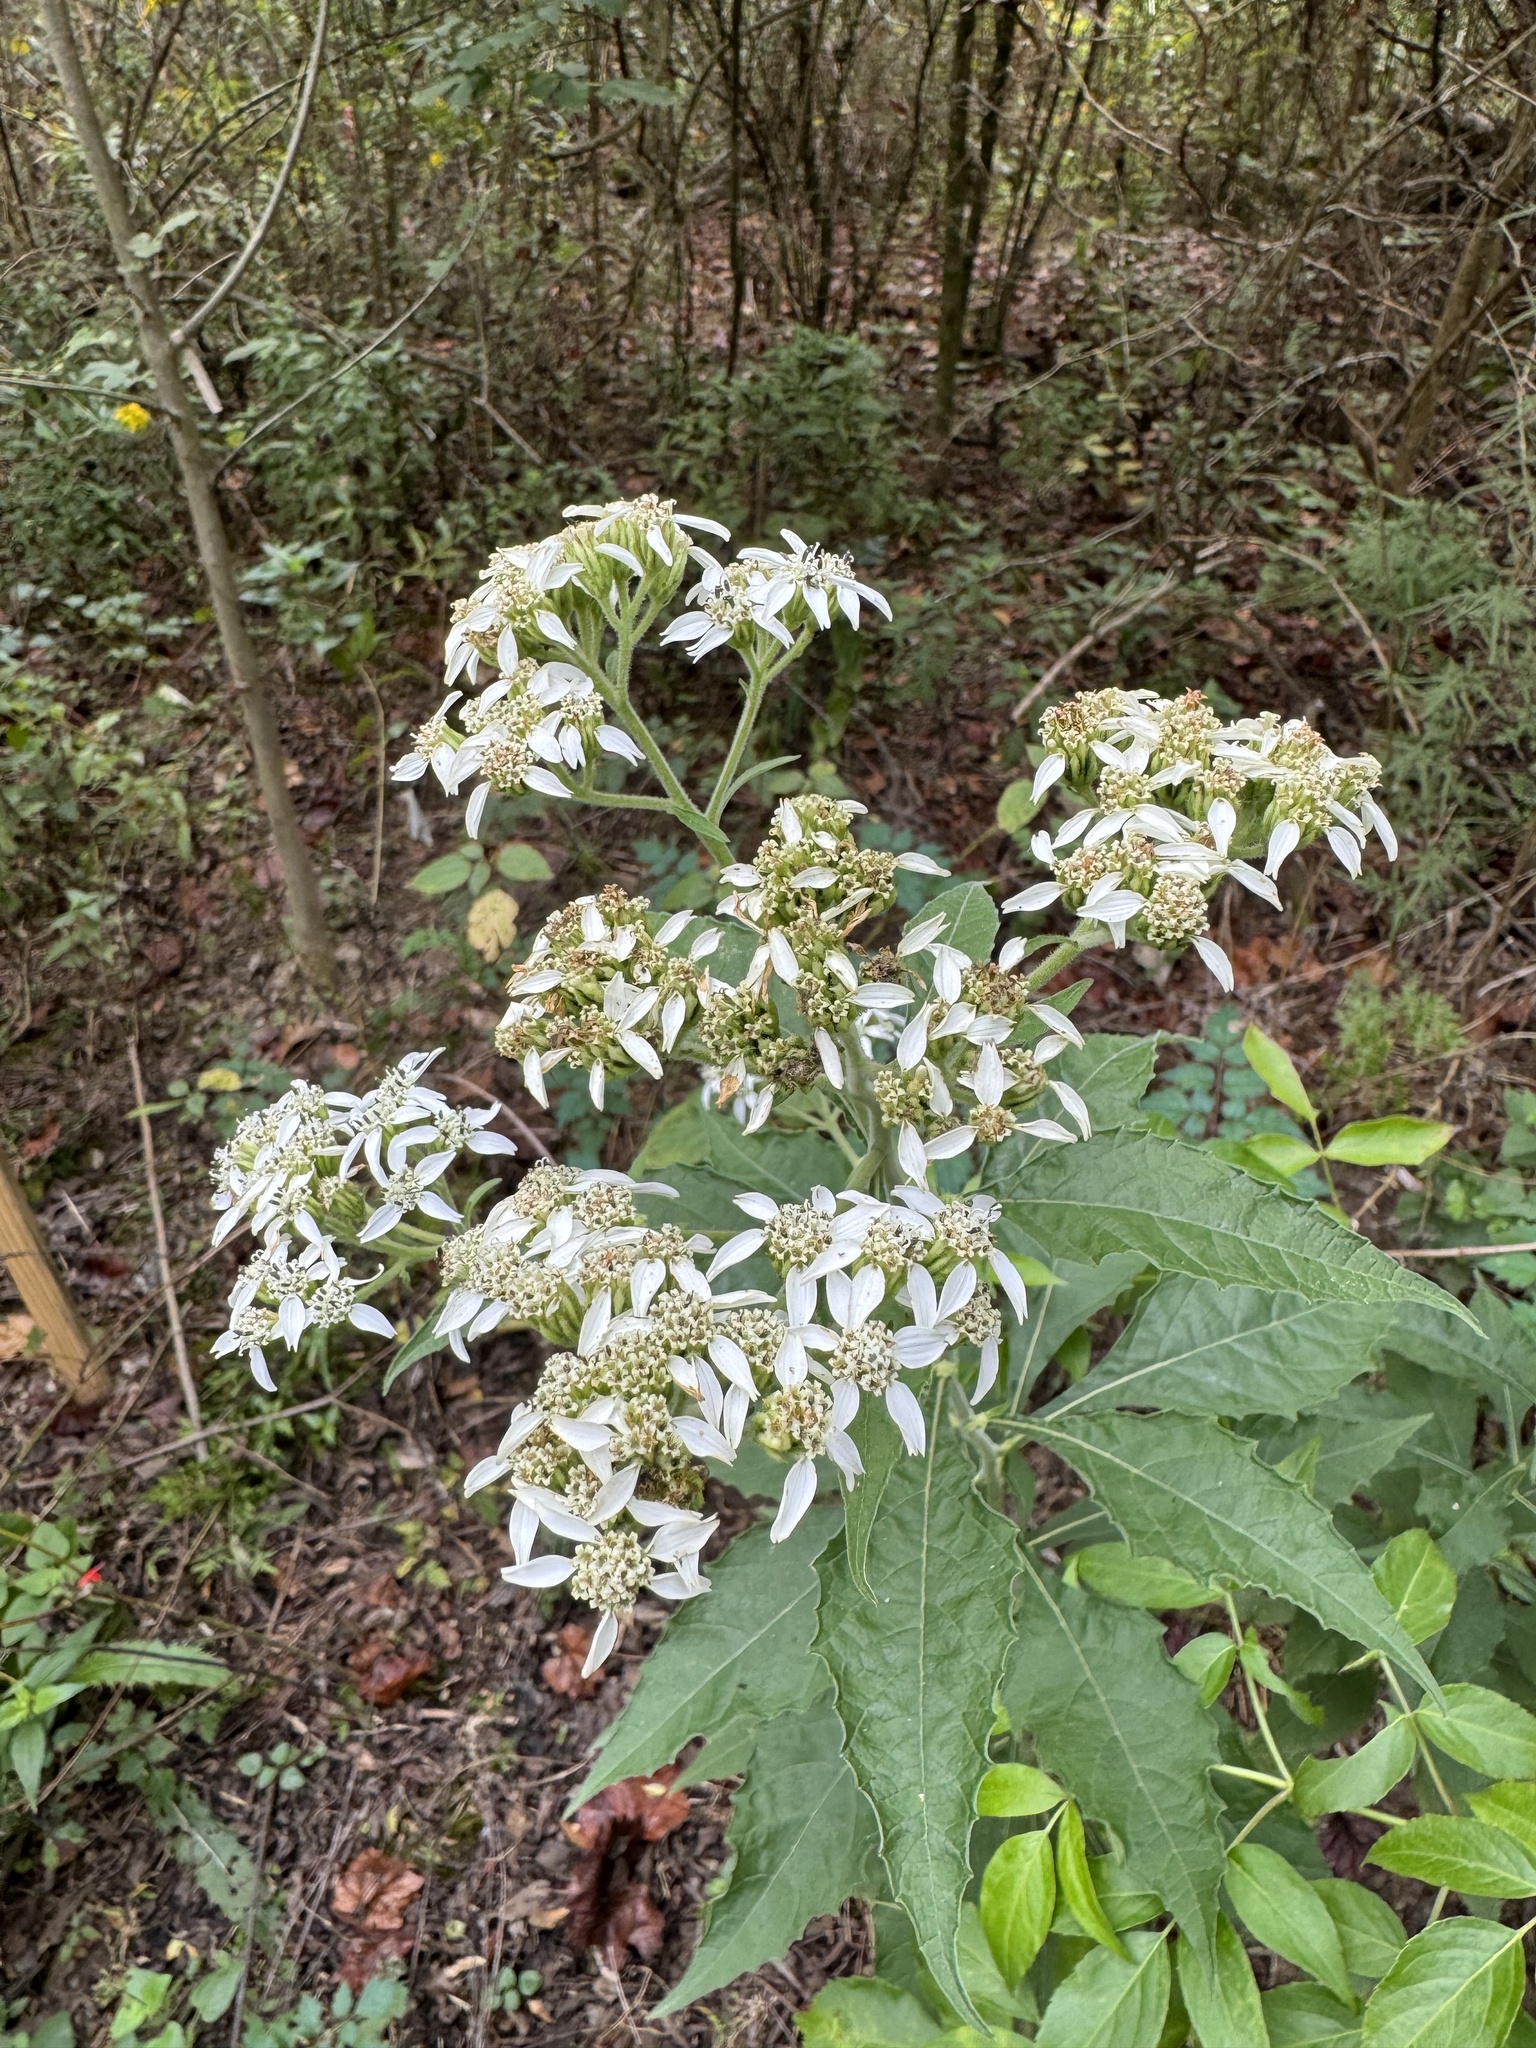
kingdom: Plantae
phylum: Tracheophyta
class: Magnoliopsida
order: Asterales
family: Asteraceae
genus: Verbesina
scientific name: Verbesina virginica
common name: Frostweed
